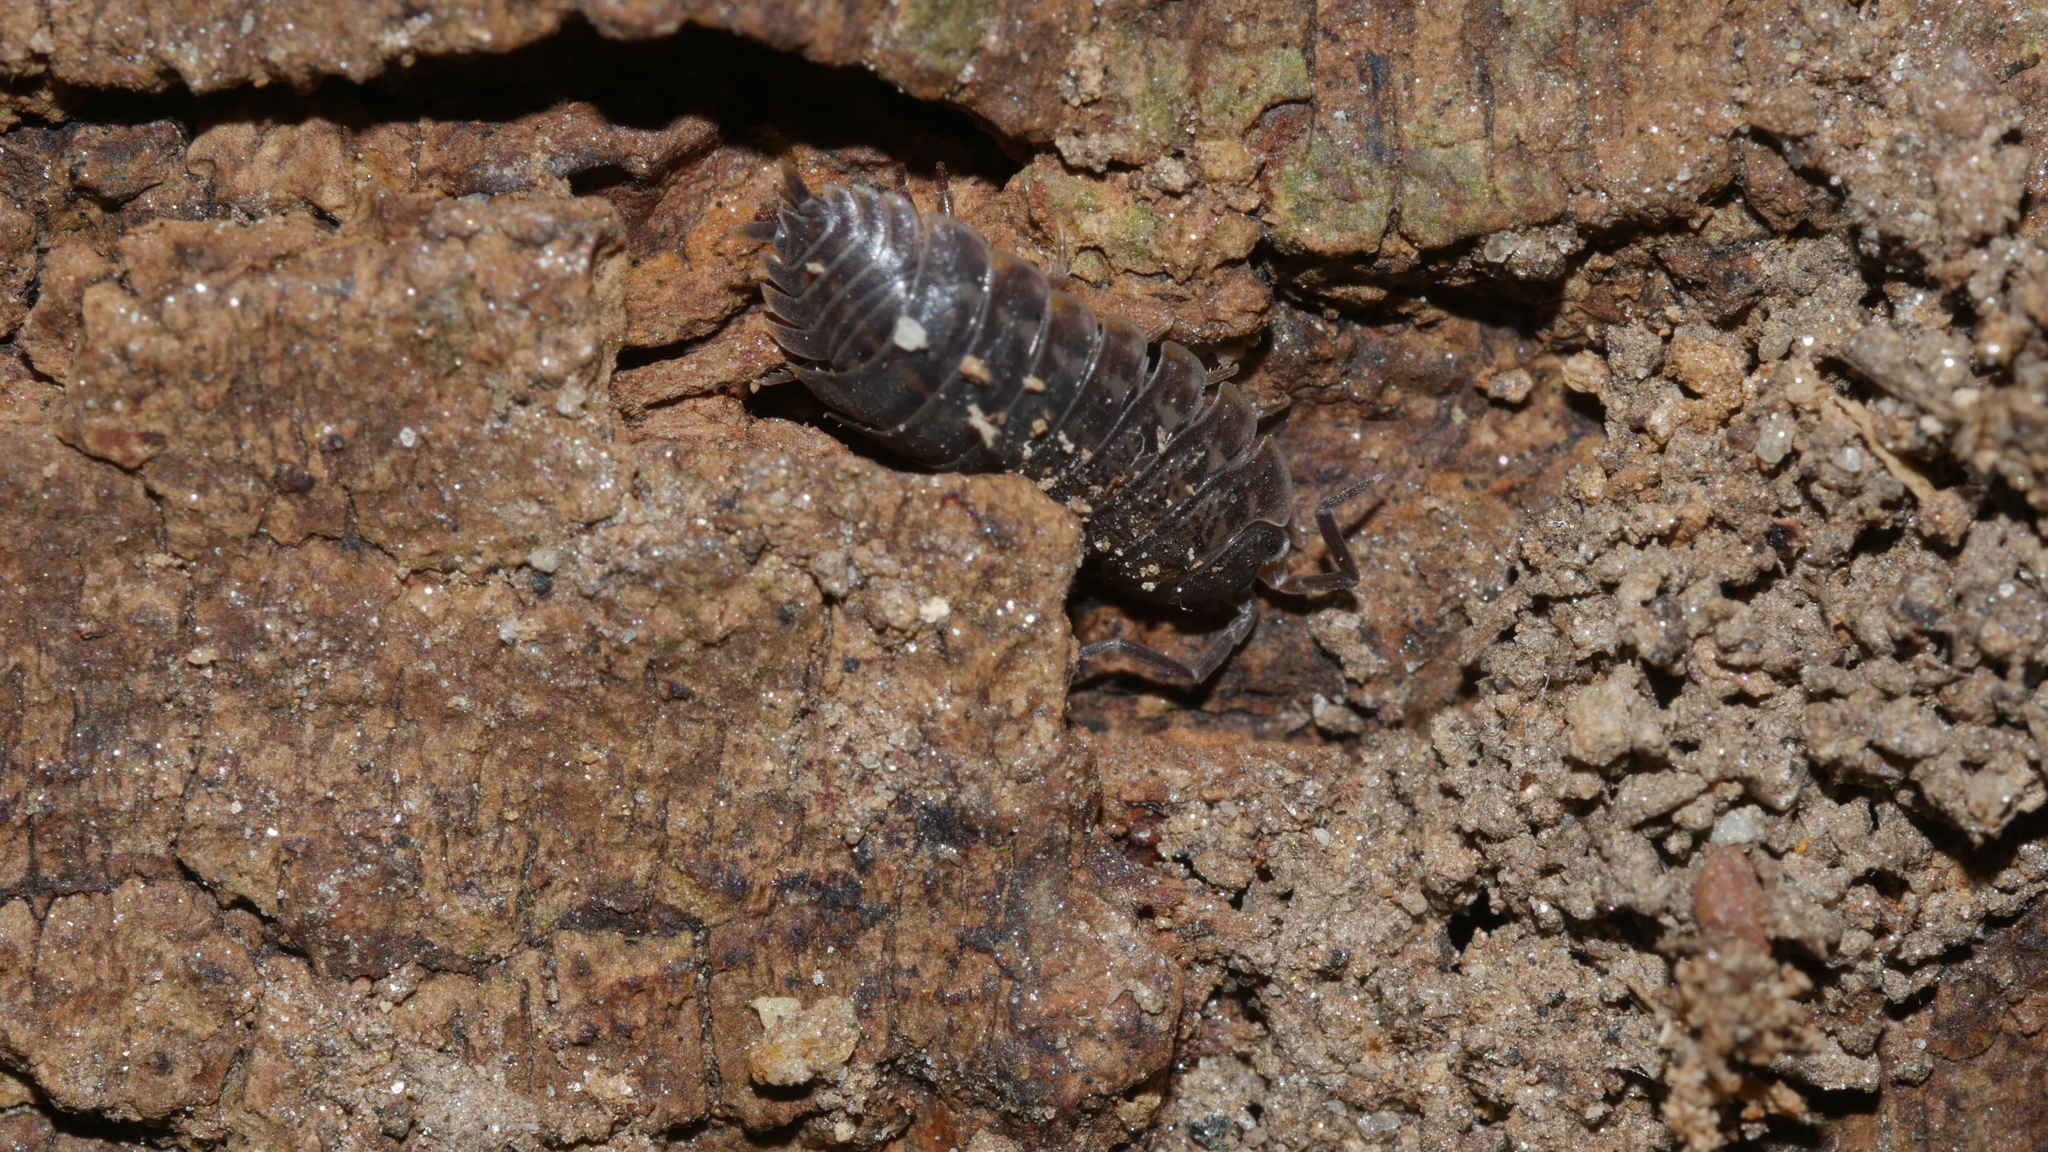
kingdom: Animalia
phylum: Arthropoda
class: Malacostraca
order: Isopoda
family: Trachelipodidae
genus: Trachelipus
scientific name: Trachelipus rathkii
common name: Isopod
